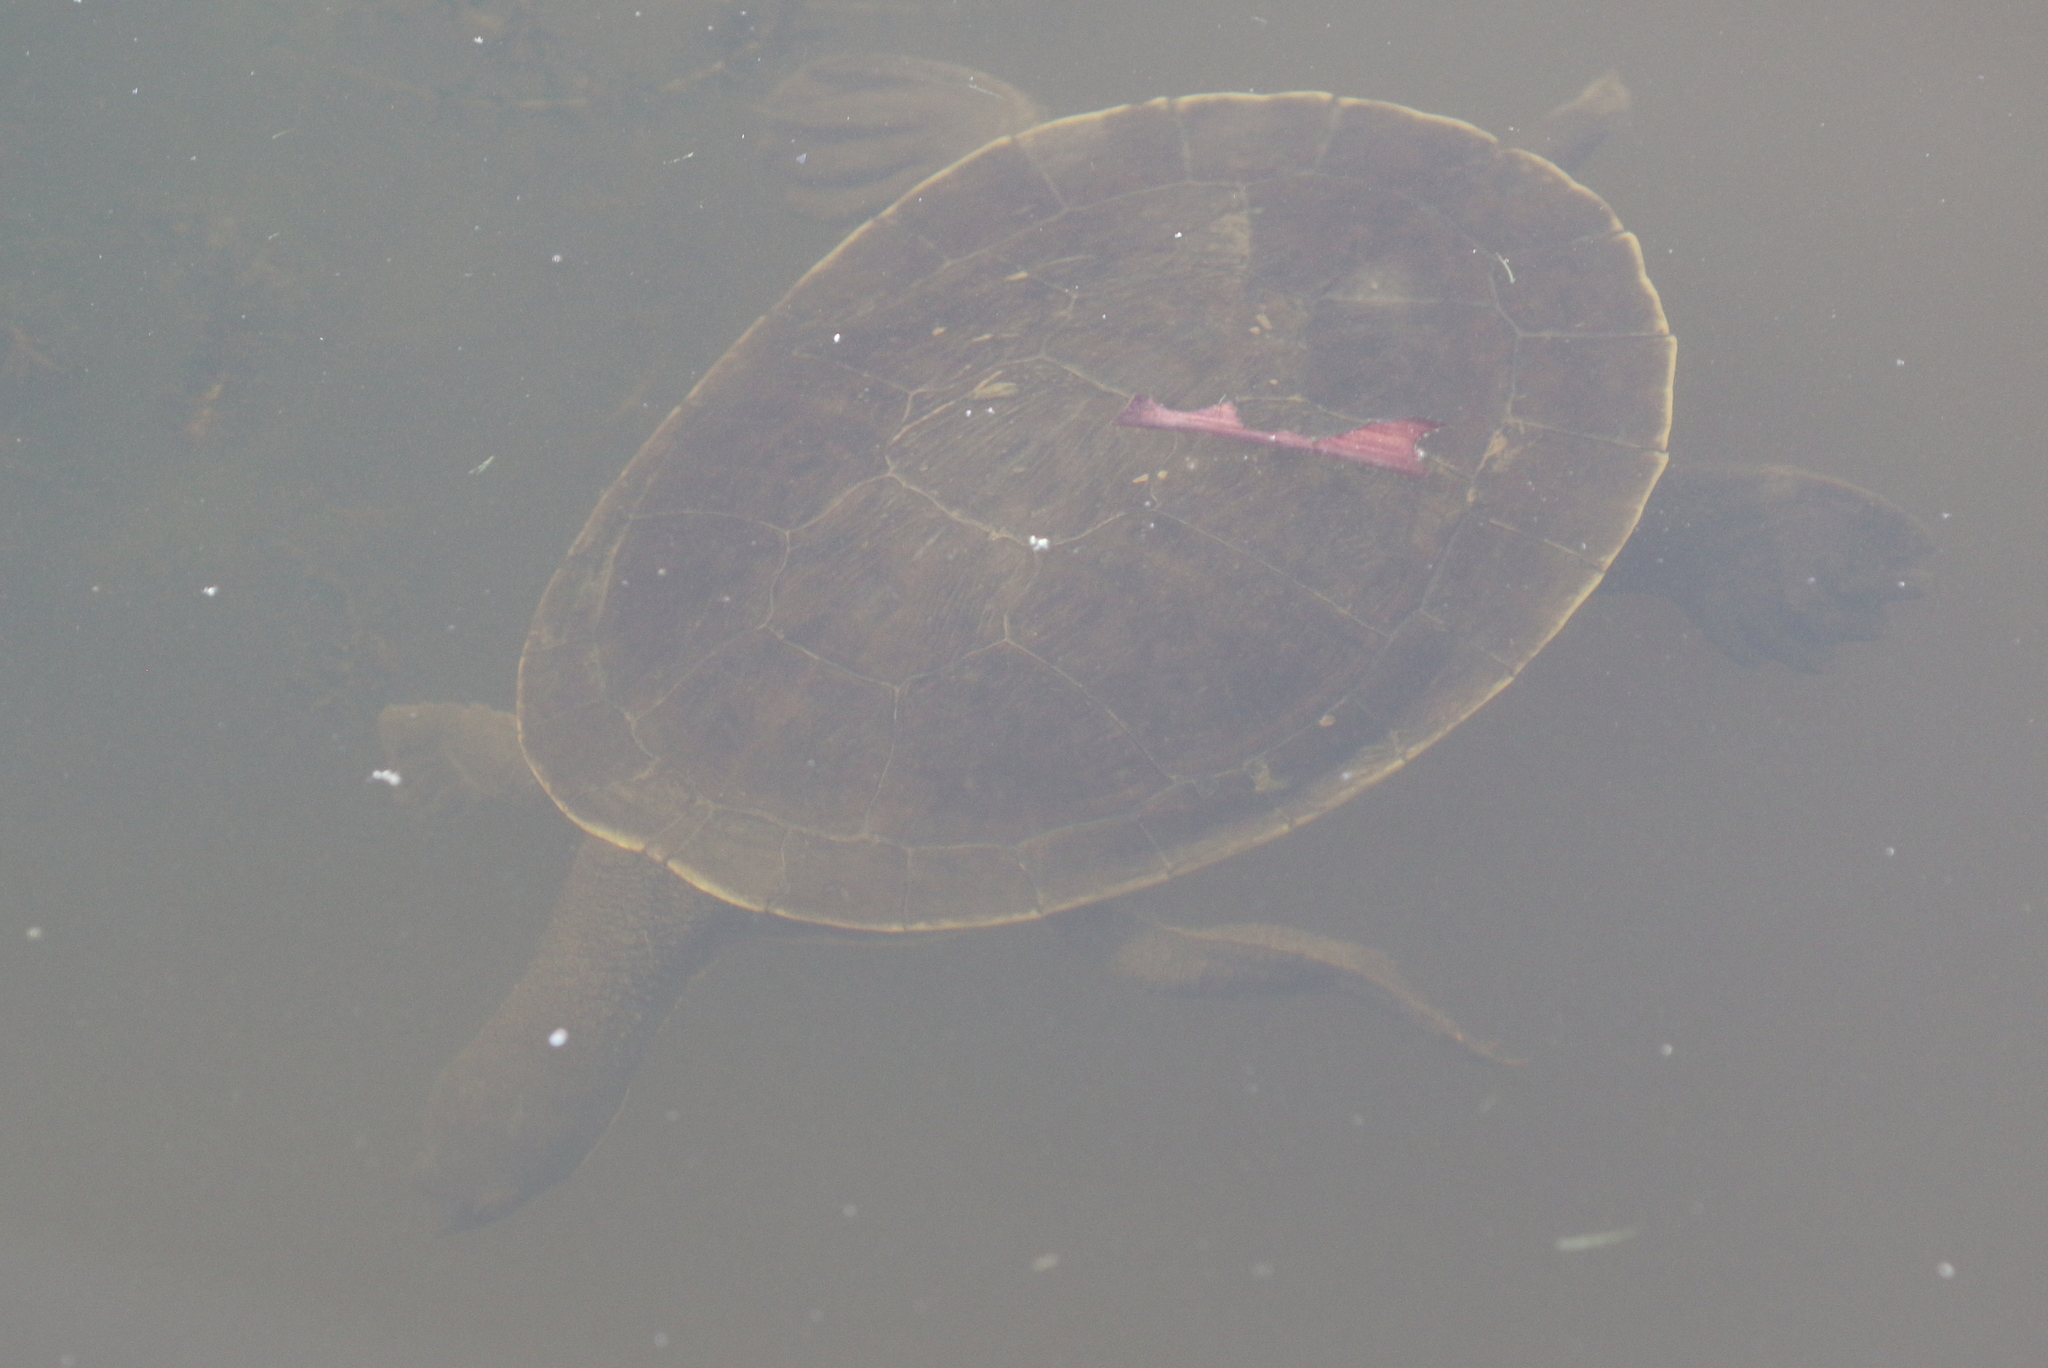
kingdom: Animalia
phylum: Chordata
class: Testudines
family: Chelidae
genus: Emydura
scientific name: Emydura macquarii
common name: Murray river turtle
